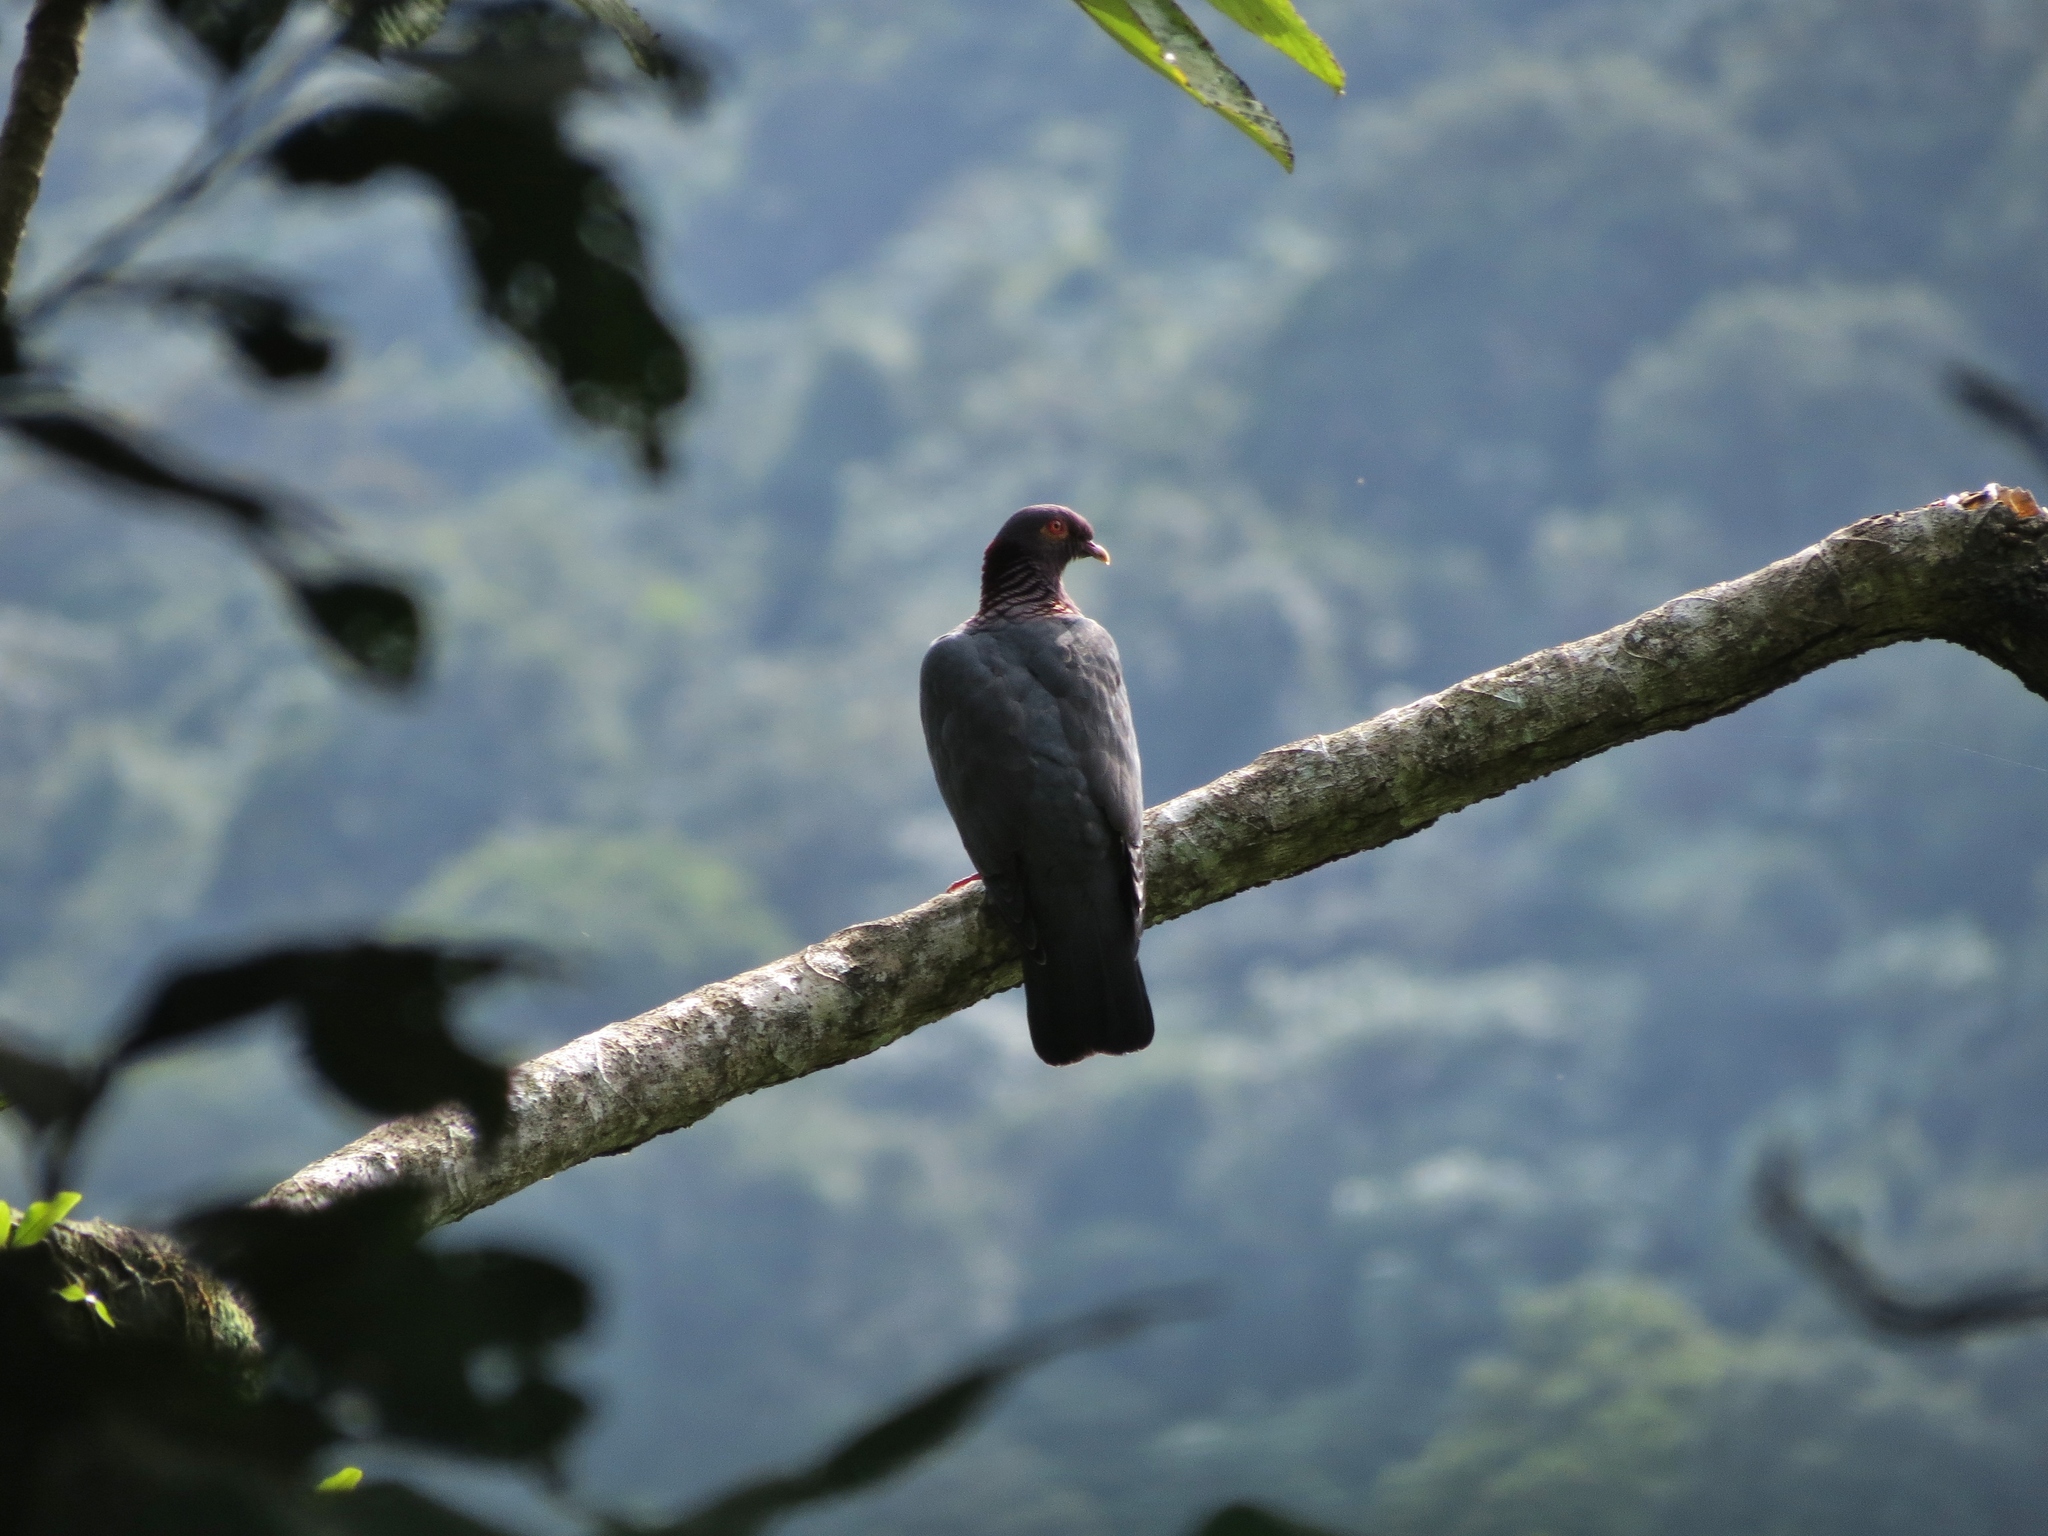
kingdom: Animalia
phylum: Chordata
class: Aves
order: Columbiformes
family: Columbidae
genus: Patagioenas
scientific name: Patagioenas squamosa
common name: Scaly-naped pigeon
